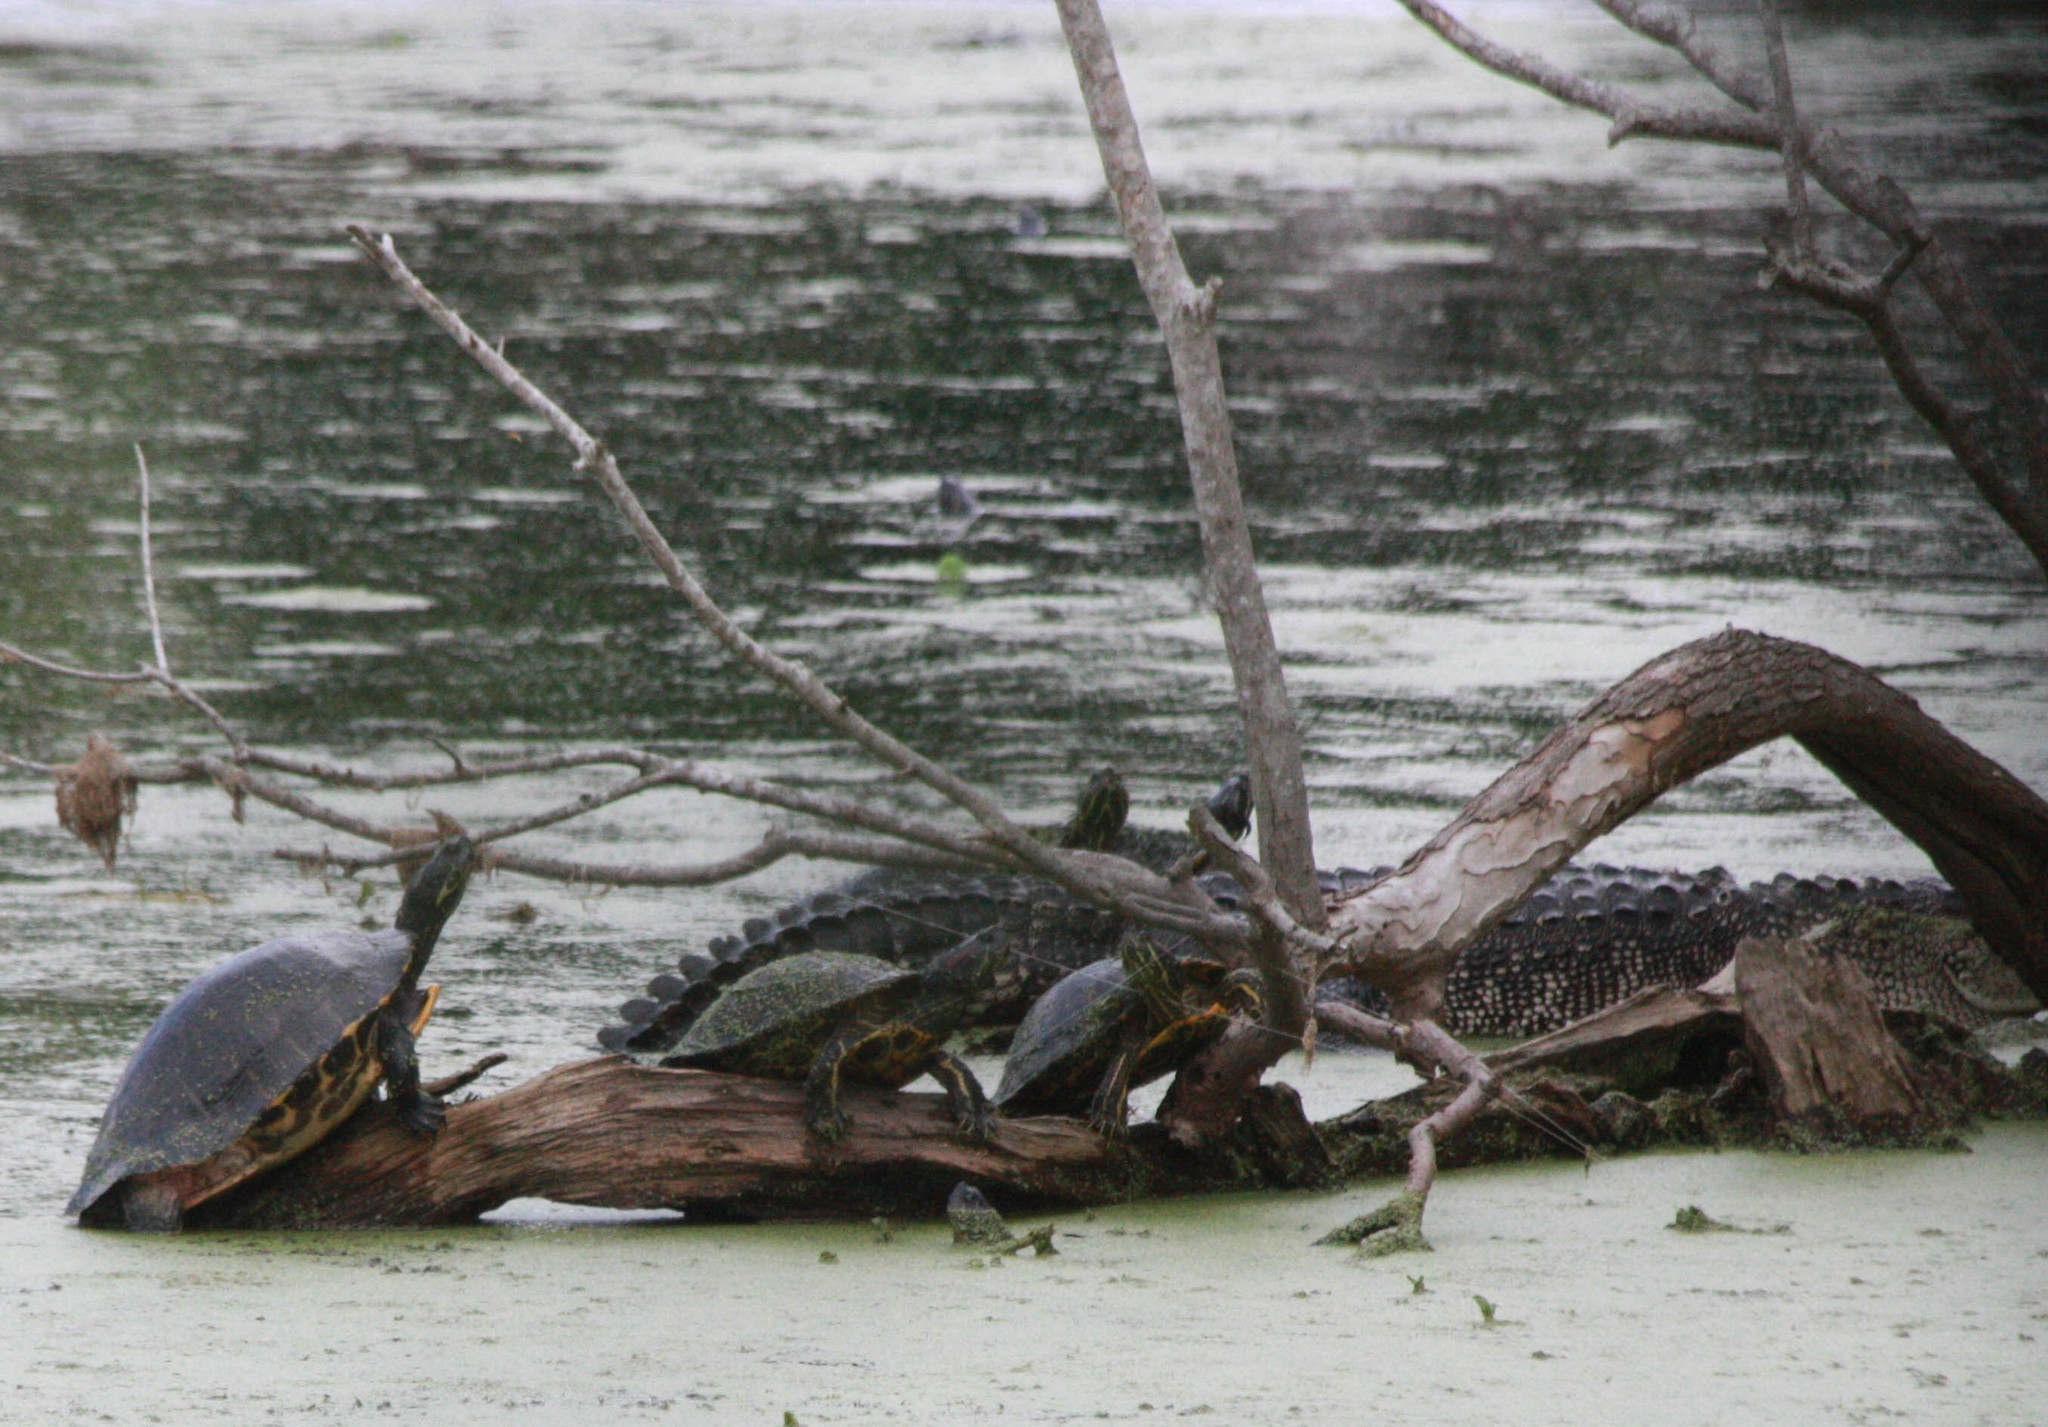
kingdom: Animalia
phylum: Chordata
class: Testudines
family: Emydidae
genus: Trachemys
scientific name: Trachemys scripta
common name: Slider
